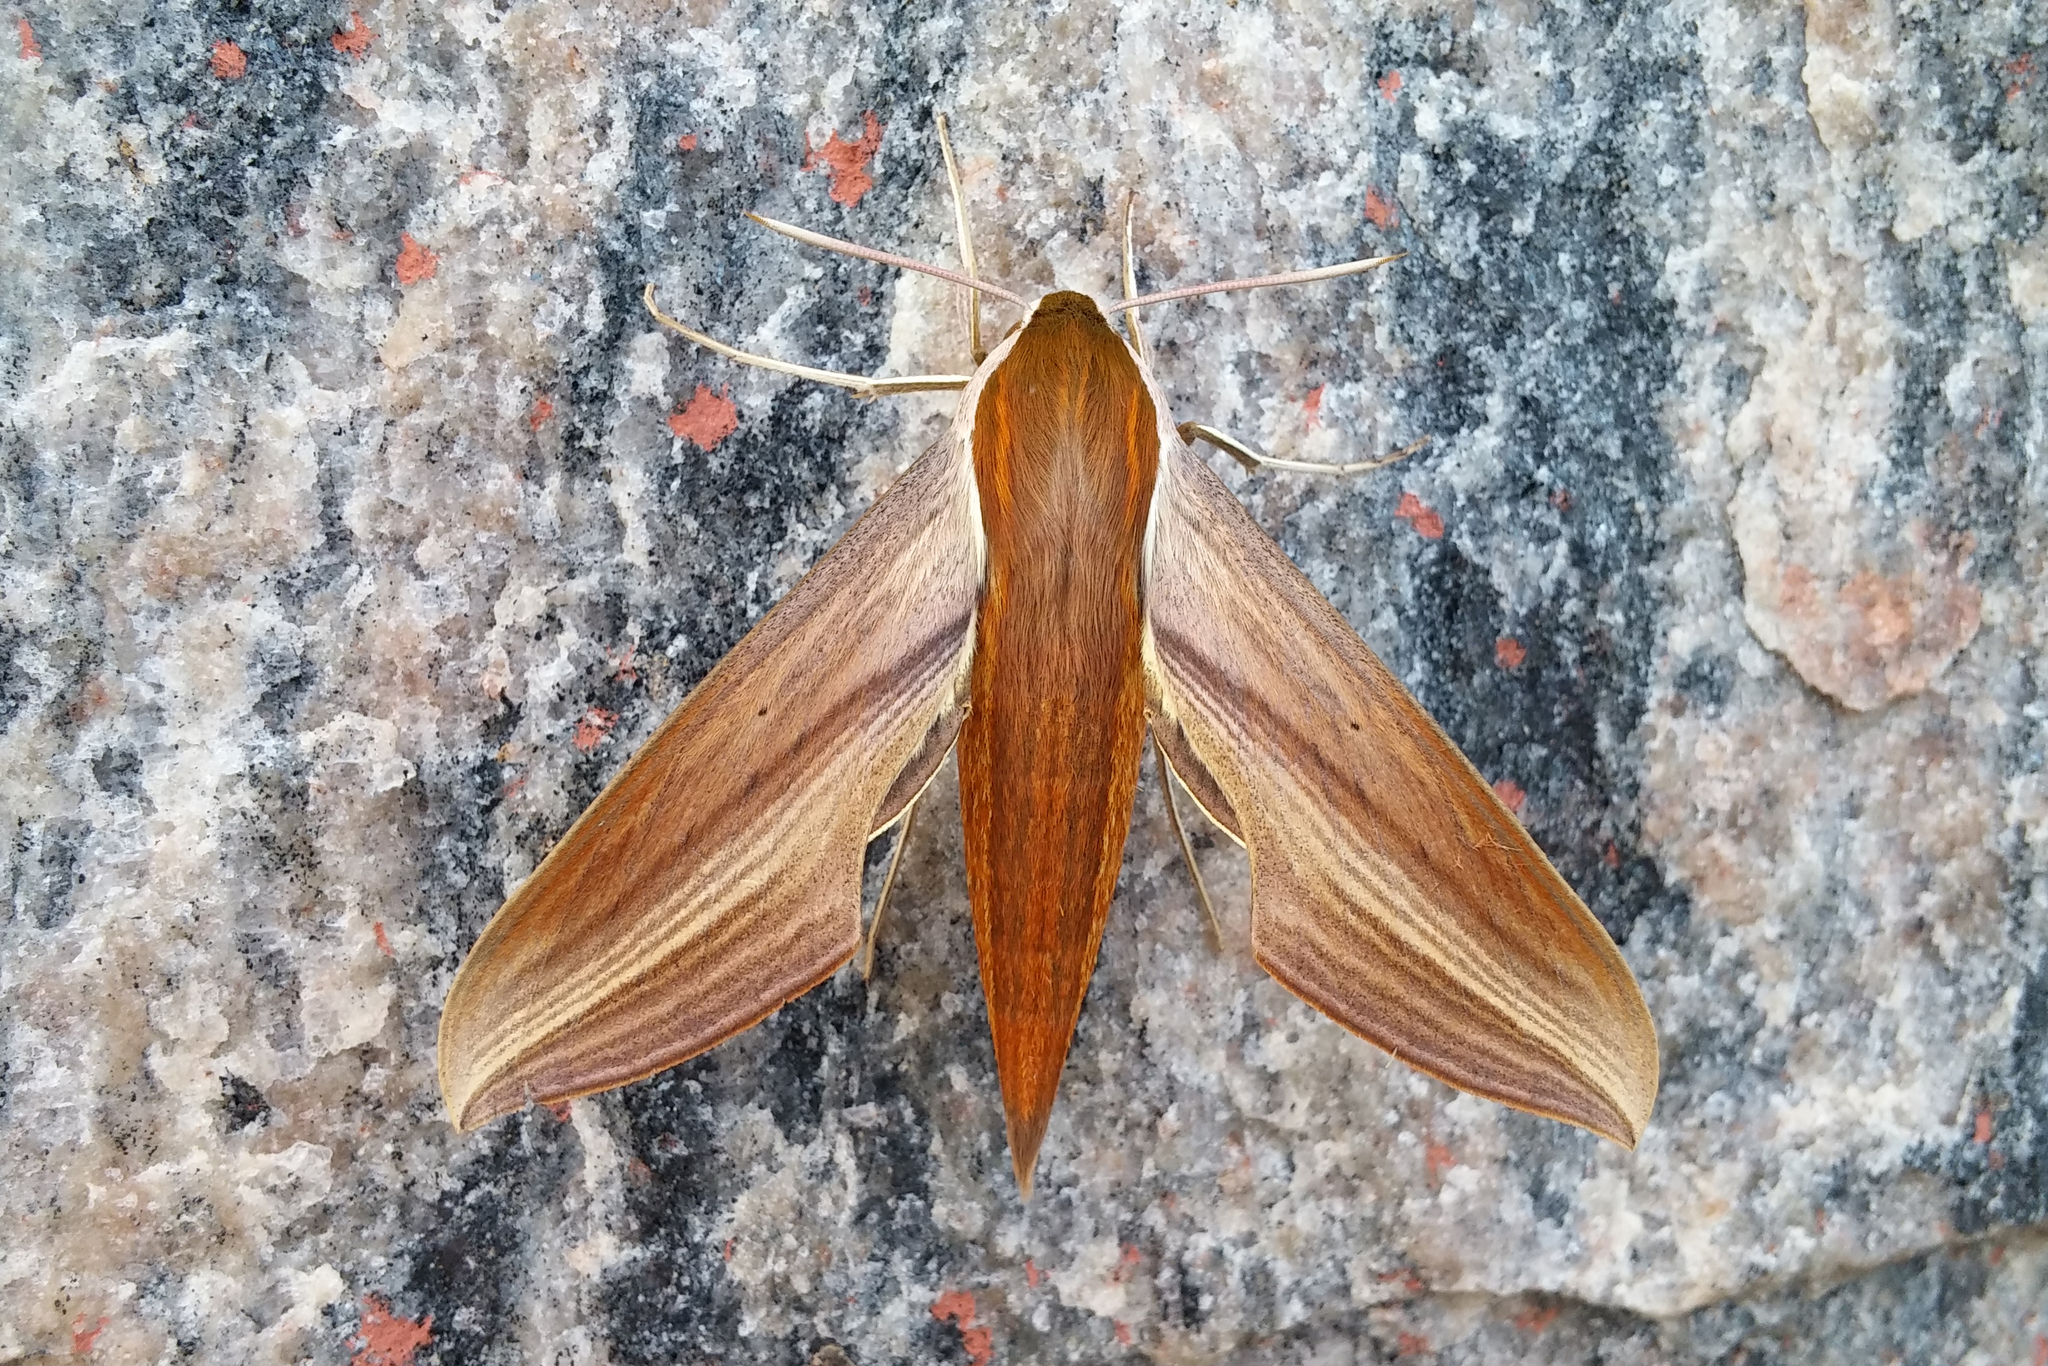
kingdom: Animalia
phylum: Arthropoda
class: Insecta
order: Lepidoptera
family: Sphingidae
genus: Xylophanes
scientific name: Xylophanes tersa
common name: Tersa sphinx
